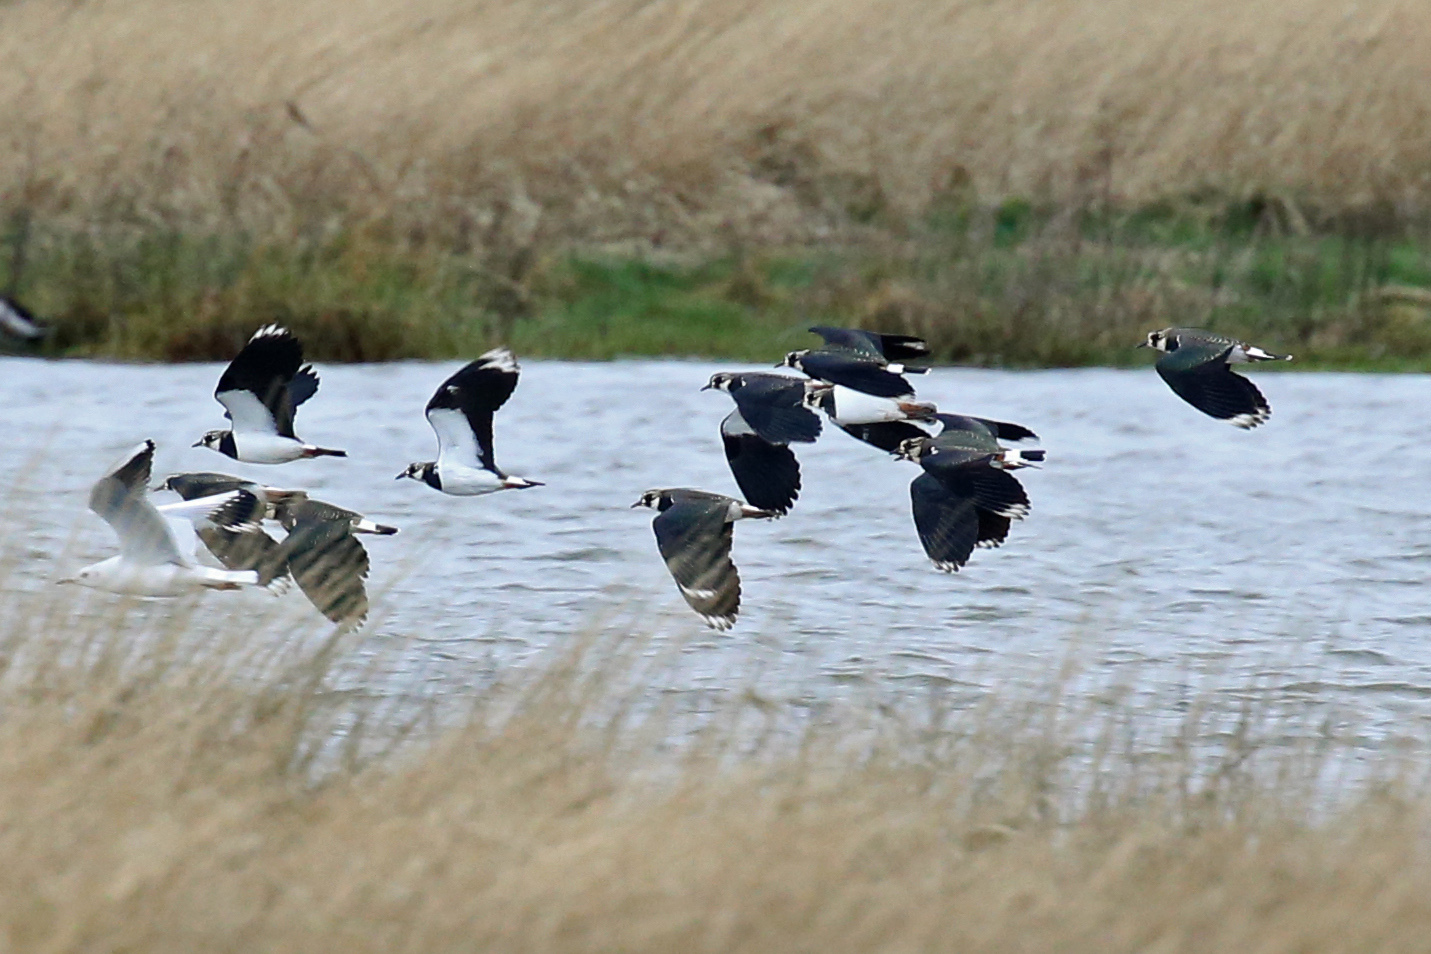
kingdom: Animalia
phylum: Chordata
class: Aves
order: Charadriiformes
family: Charadriidae
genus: Vanellus
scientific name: Vanellus vanellus
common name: Northern lapwing
